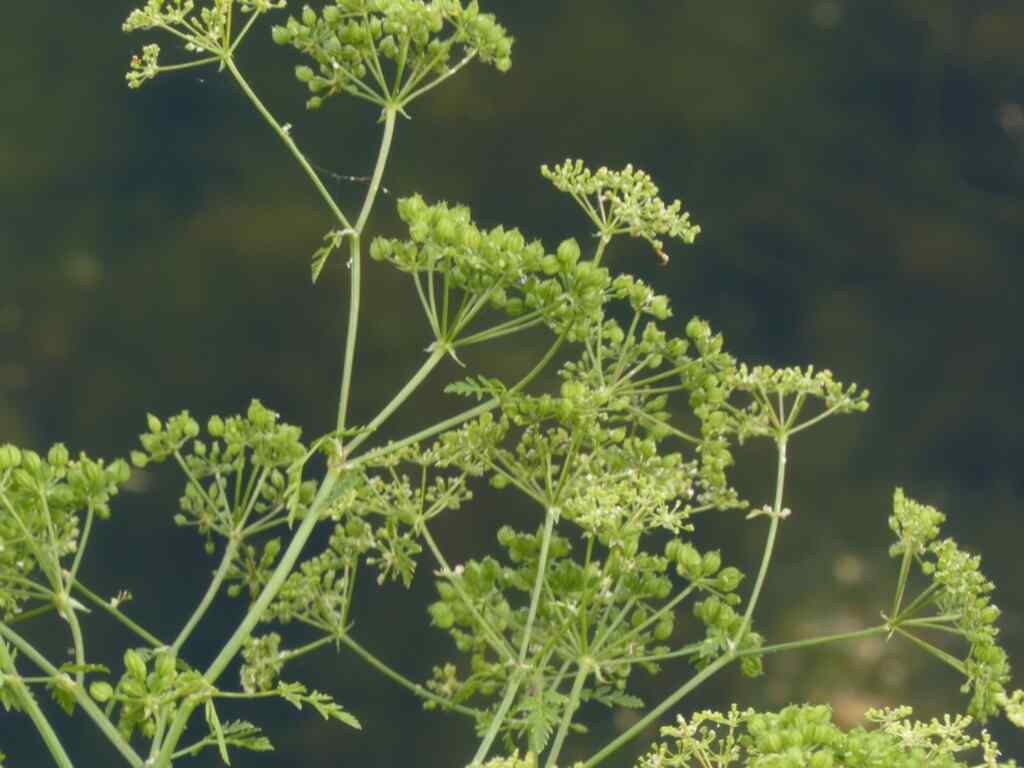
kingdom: Plantae
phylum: Tracheophyta
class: Magnoliopsida
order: Apiales
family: Apiaceae
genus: Conium
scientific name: Conium maculatum
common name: Hemlock
